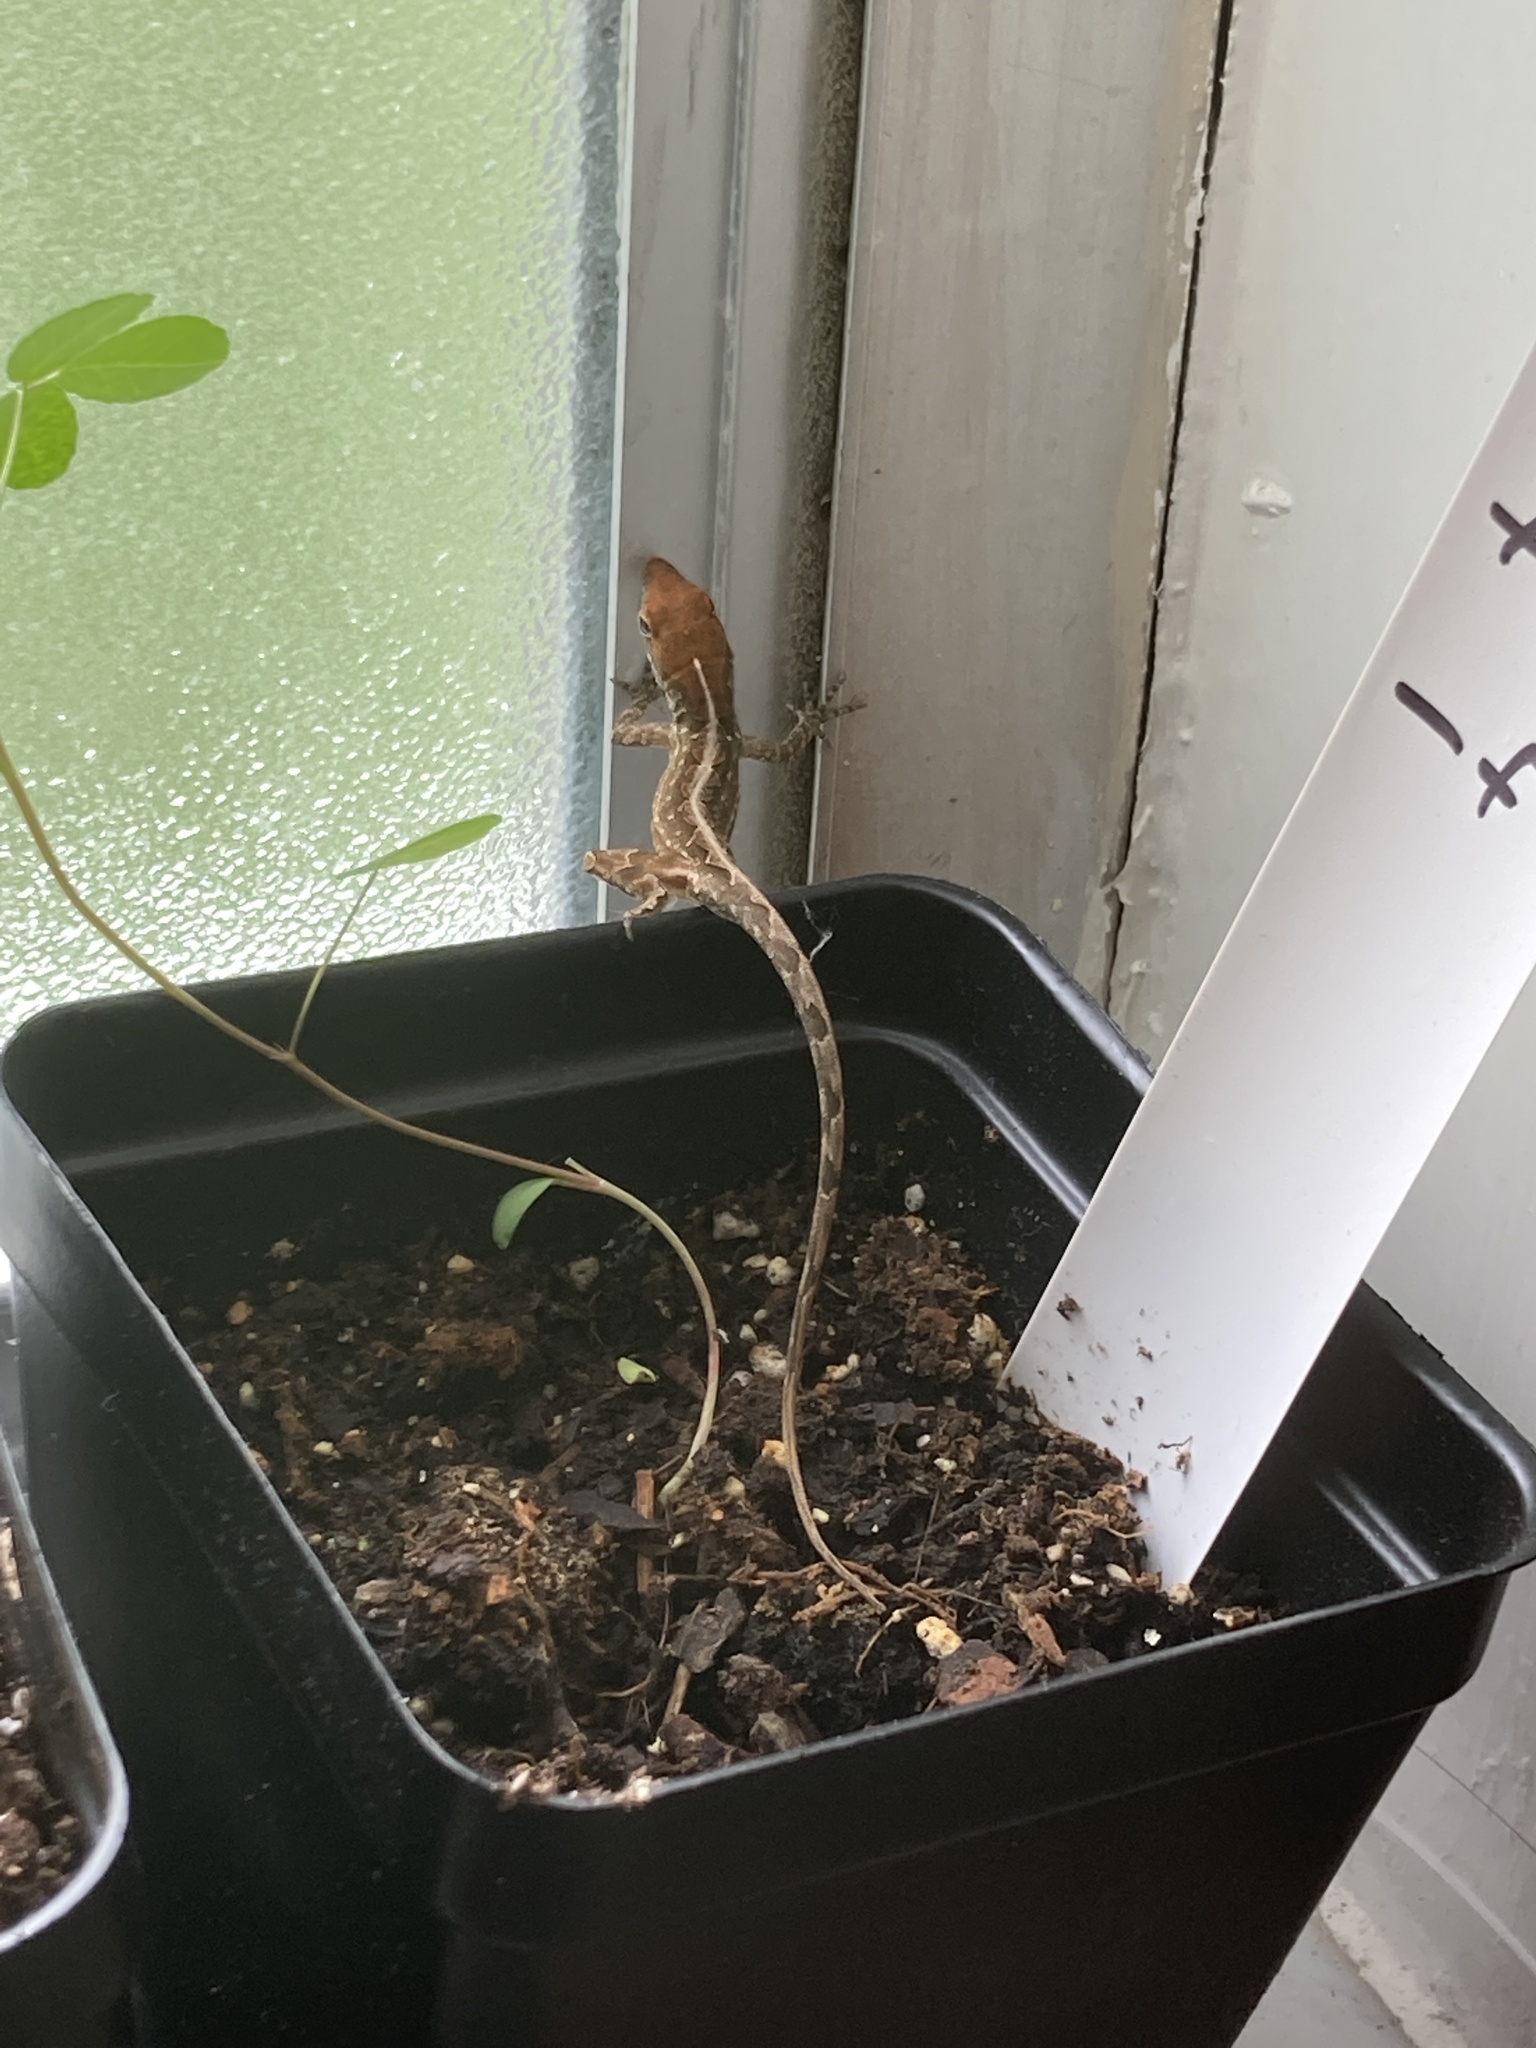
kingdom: Animalia
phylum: Chordata
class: Squamata
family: Dactyloidae
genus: Anolis
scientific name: Anolis sagrei
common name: Brown anole
